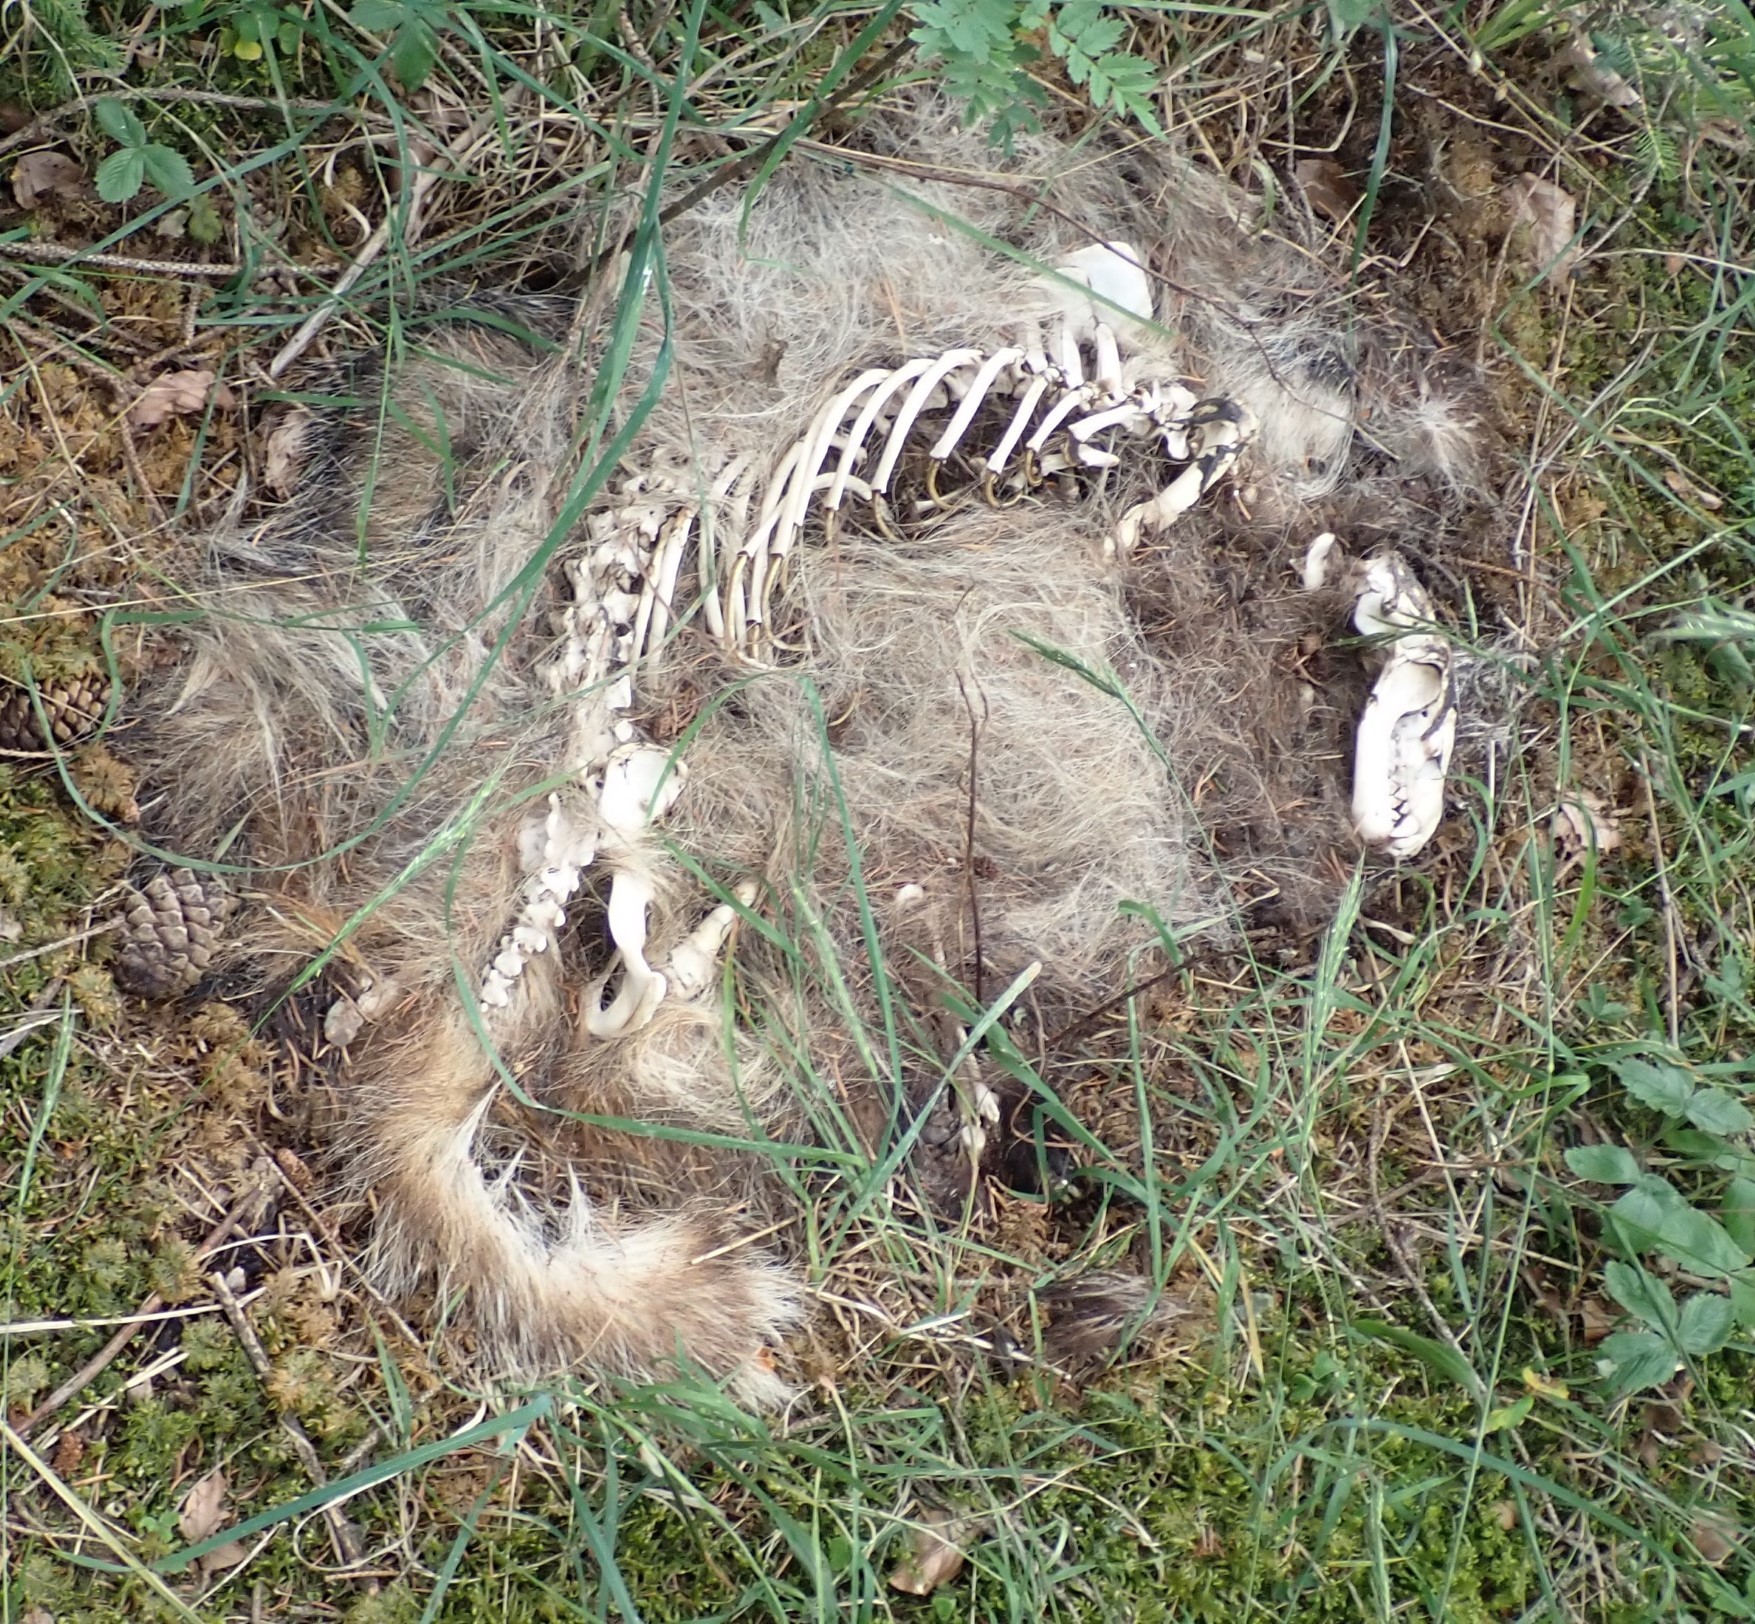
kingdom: Animalia
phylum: Chordata
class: Mammalia
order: Carnivora
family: Mustelidae
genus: Meles
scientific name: Meles meles
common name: Eurasian badger
